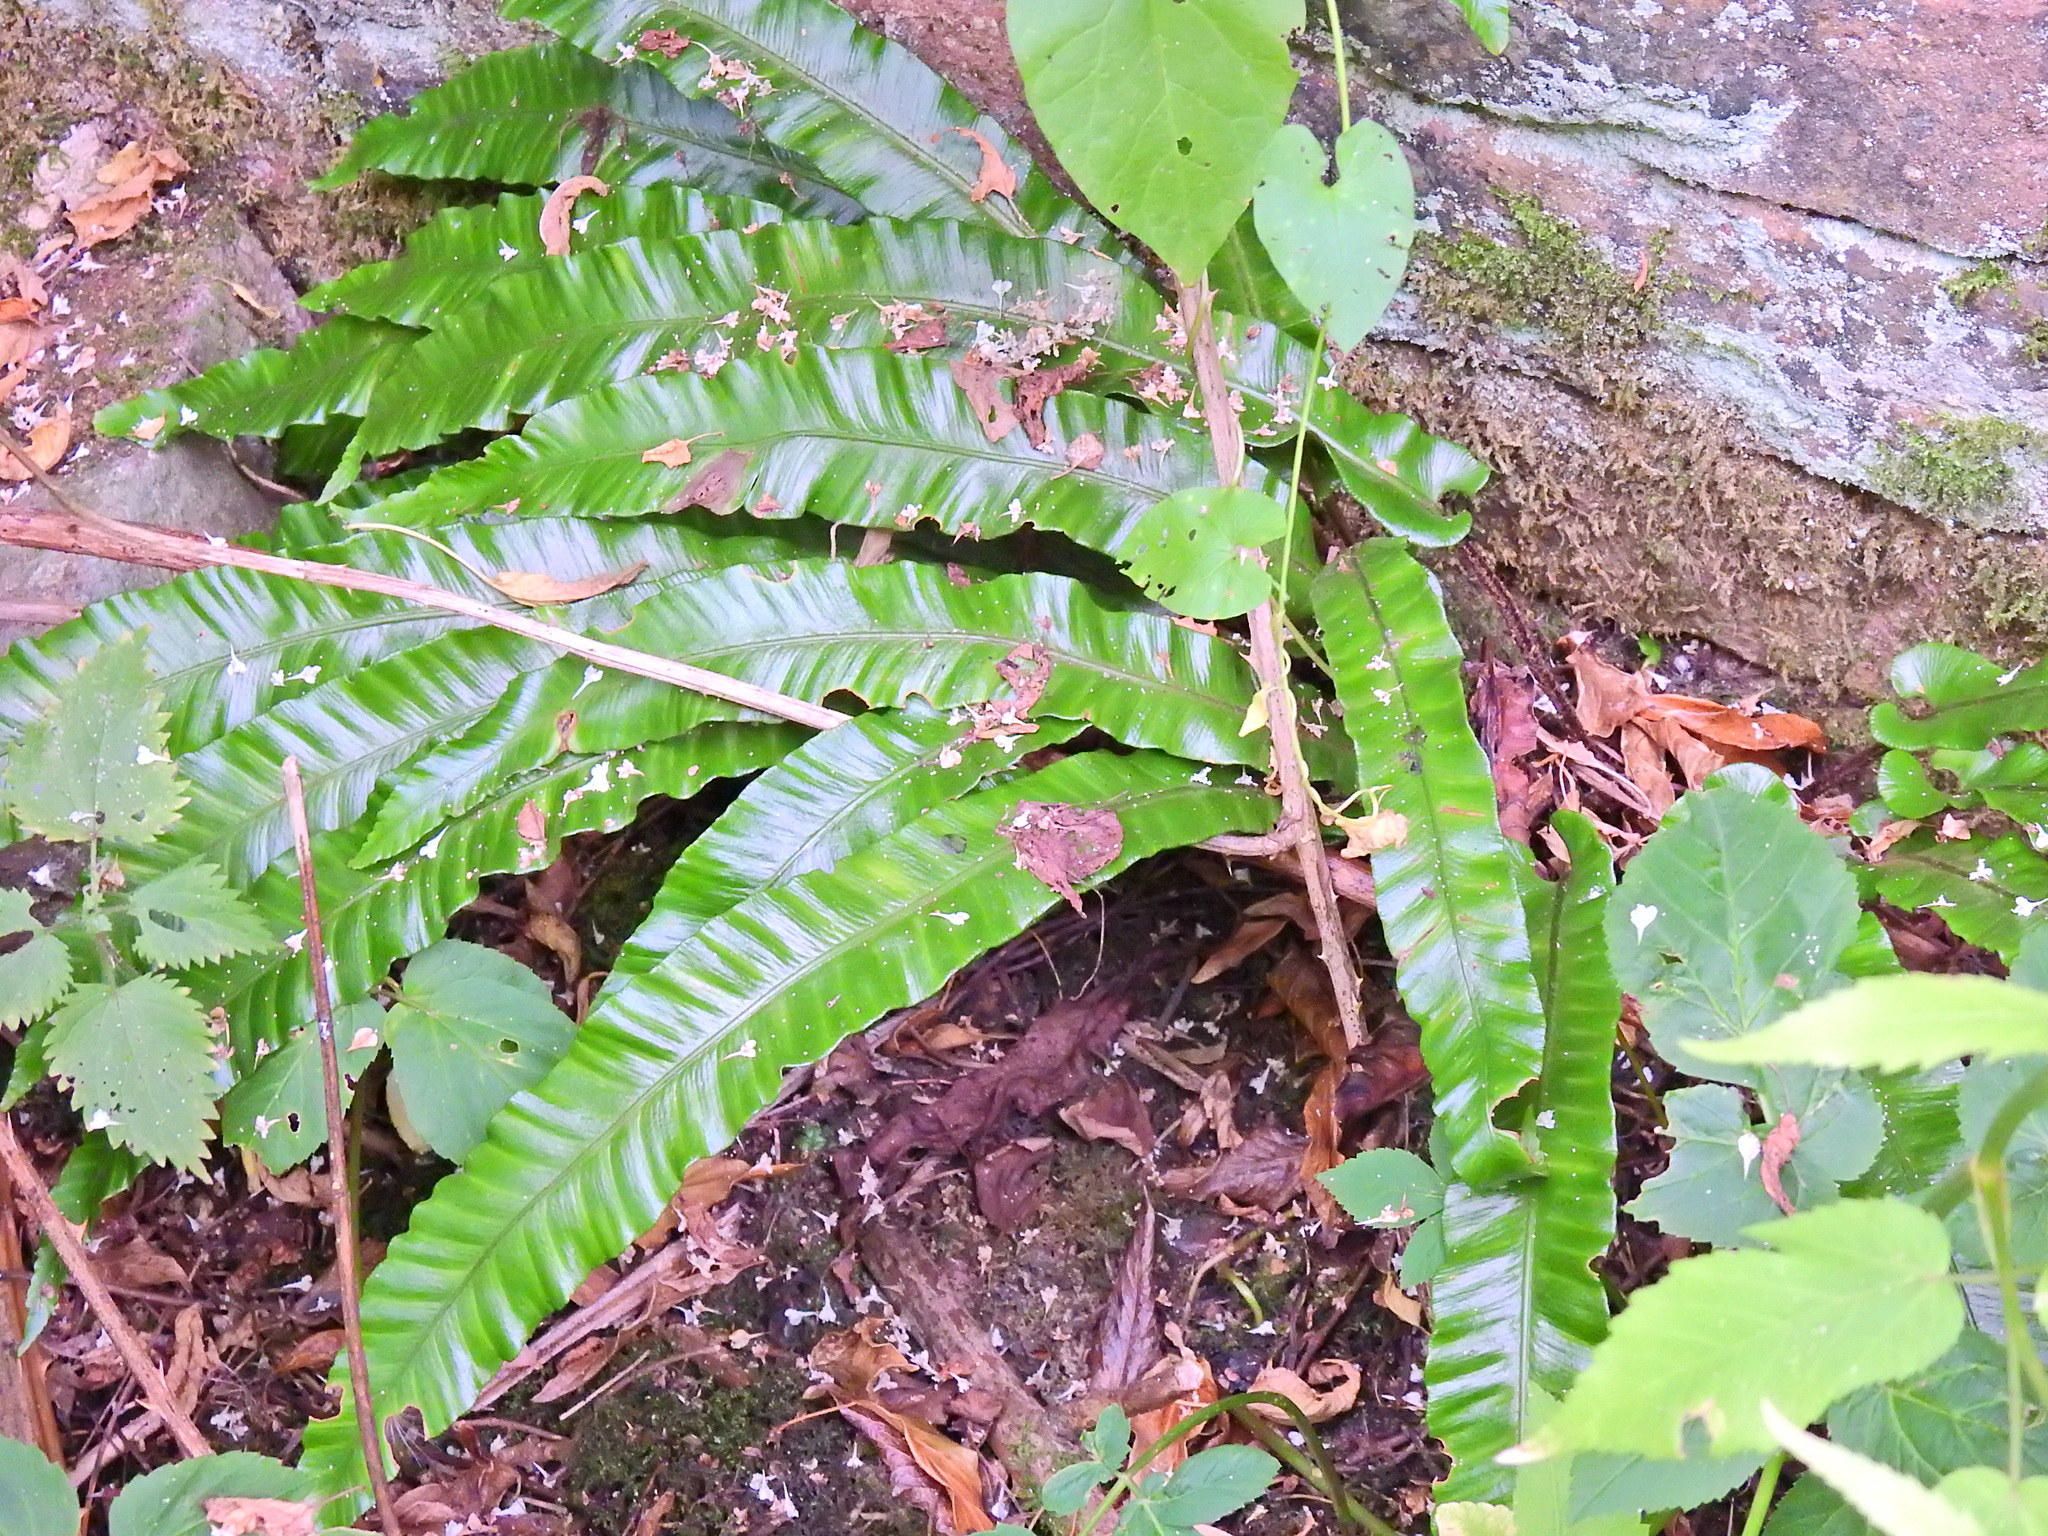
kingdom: Plantae
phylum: Tracheophyta
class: Polypodiopsida
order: Polypodiales
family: Aspleniaceae
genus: Asplenium
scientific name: Asplenium scolopendrium
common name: Hart's-tongue fern
